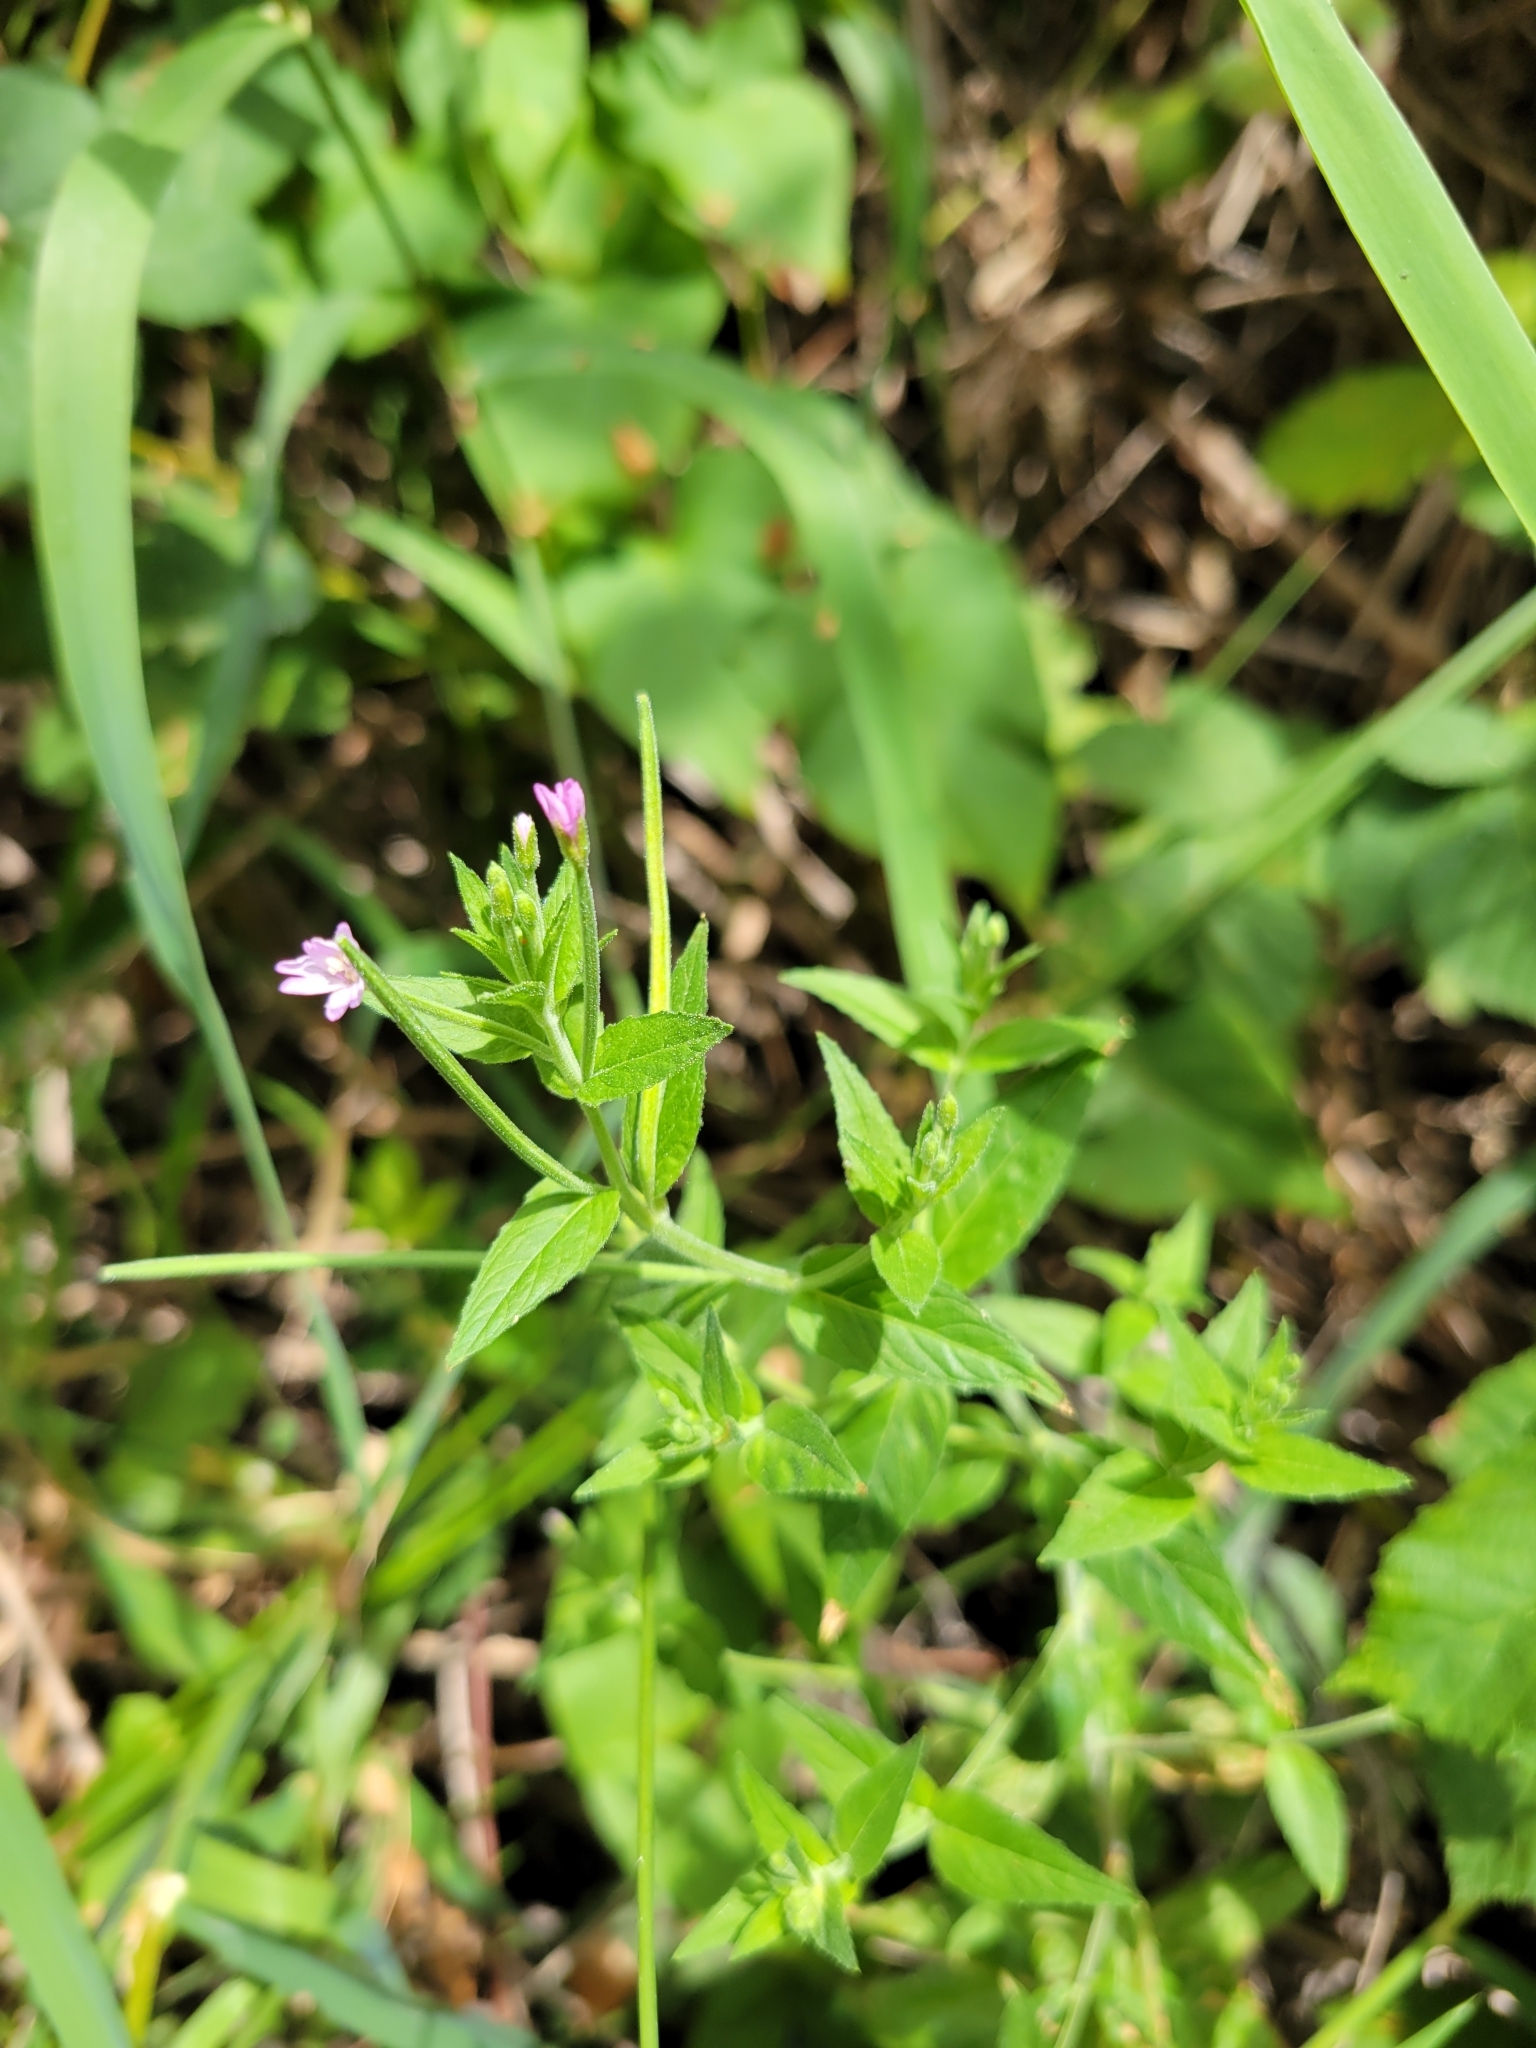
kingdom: Plantae
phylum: Tracheophyta
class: Magnoliopsida
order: Myrtales
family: Onagraceae
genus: Epilobium
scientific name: Epilobium ciliatum
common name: American willowherb
